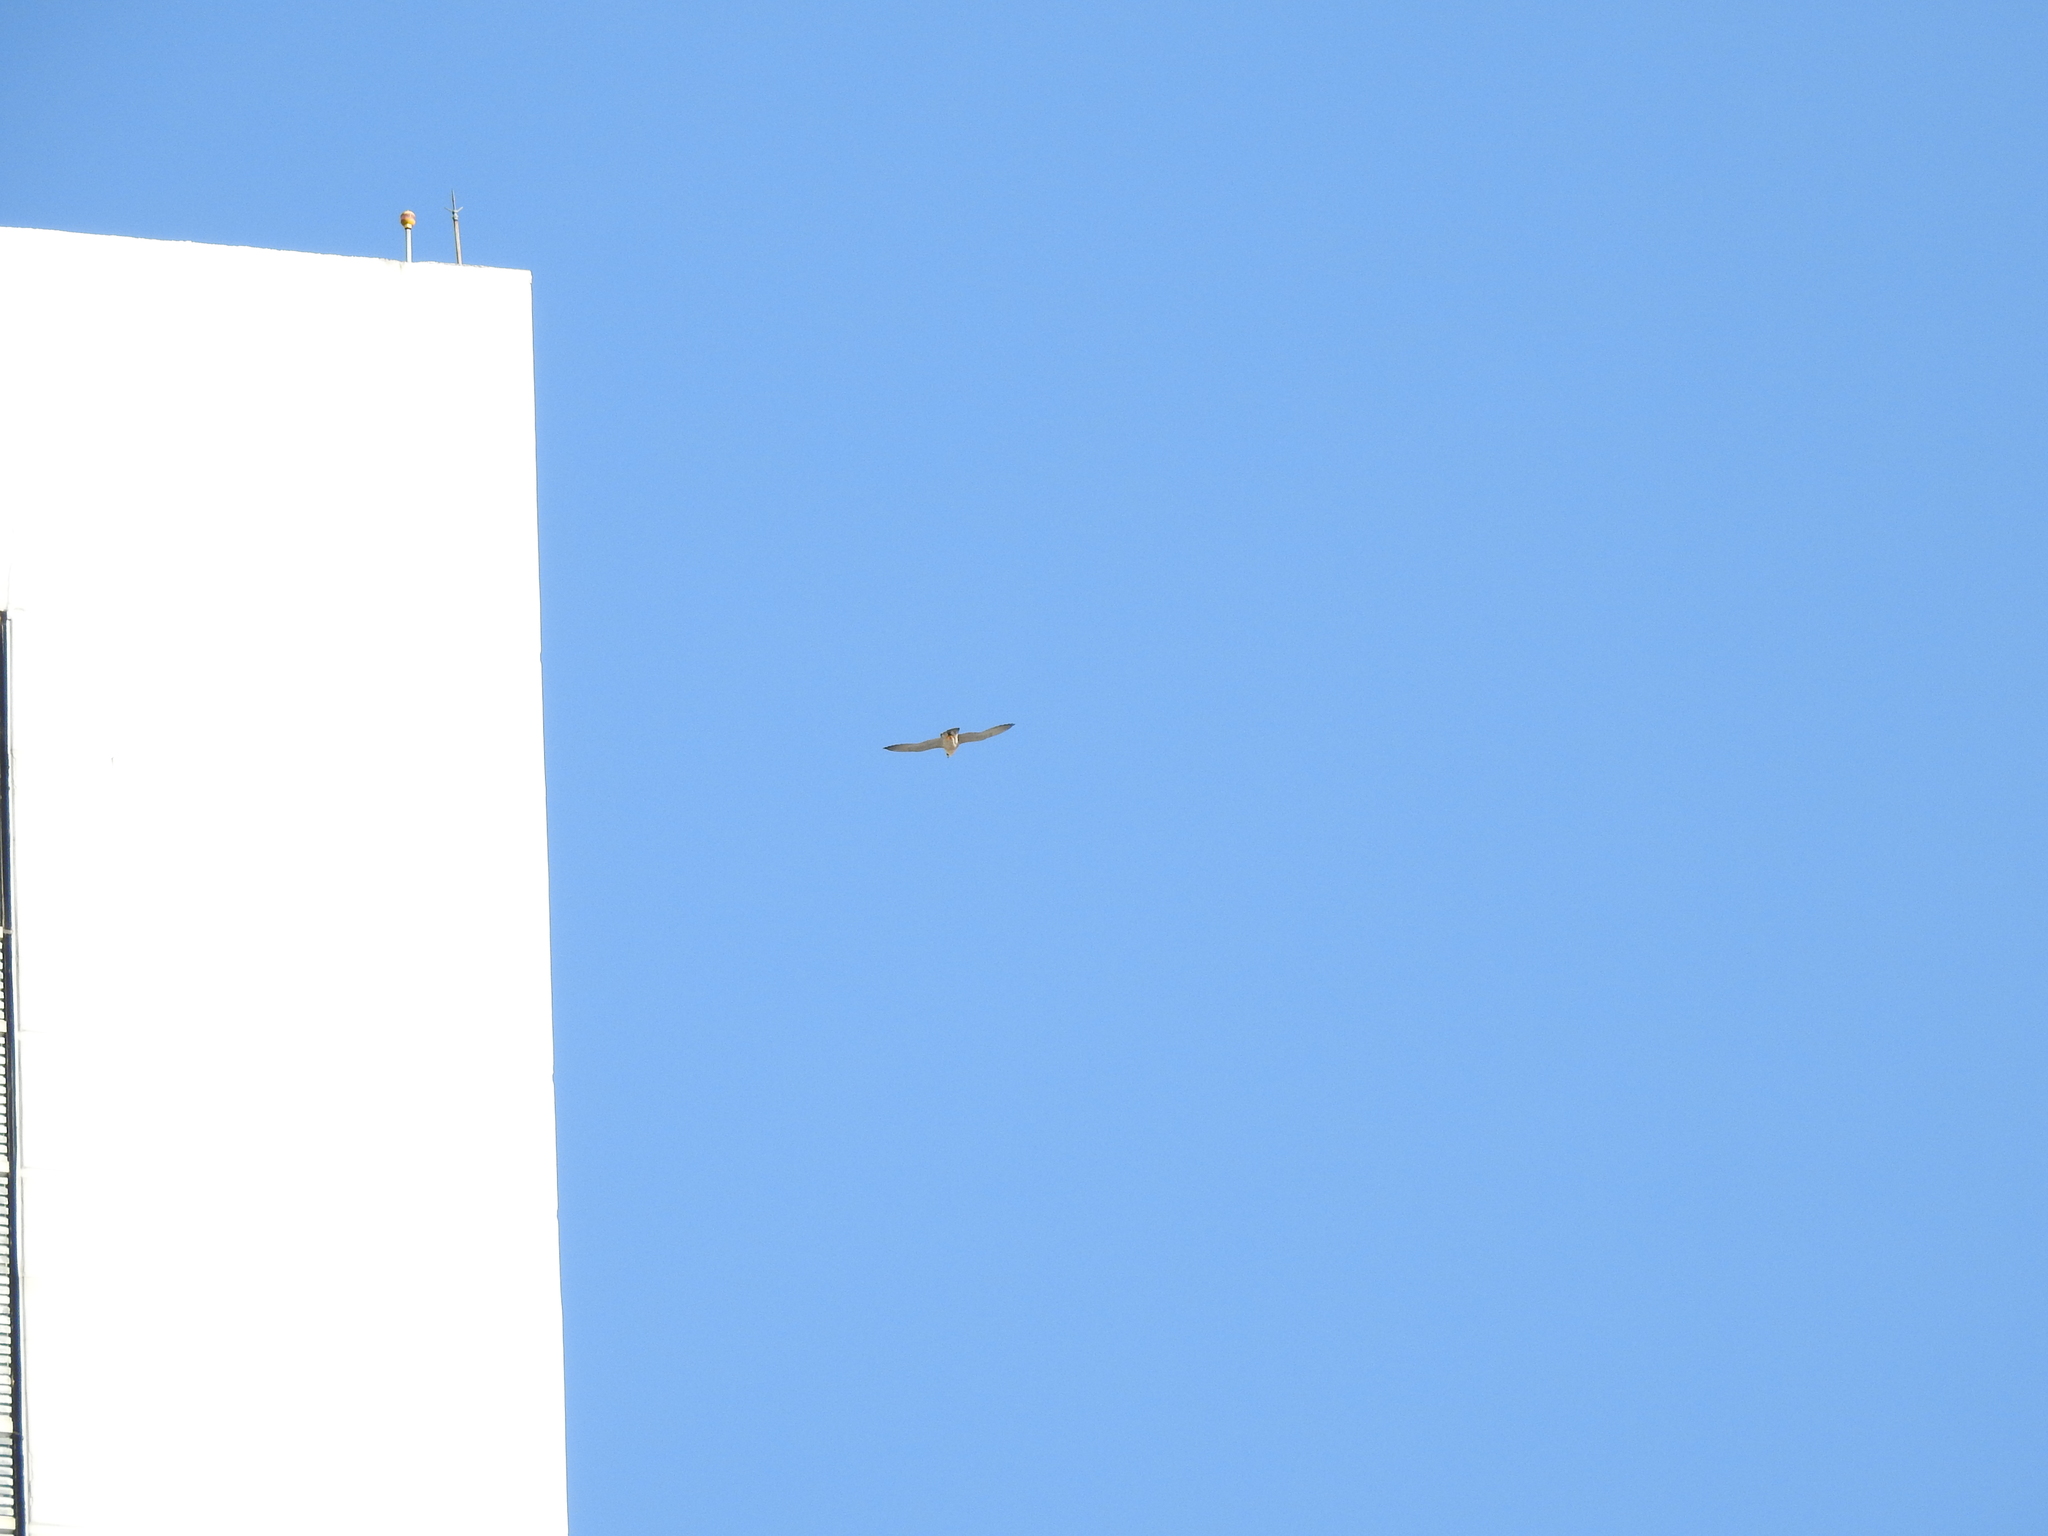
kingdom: Animalia
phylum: Chordata
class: Aves
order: Falconiformes
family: Falconidae
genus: Falco
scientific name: Falco peregrinus
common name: Peregrine falcon
